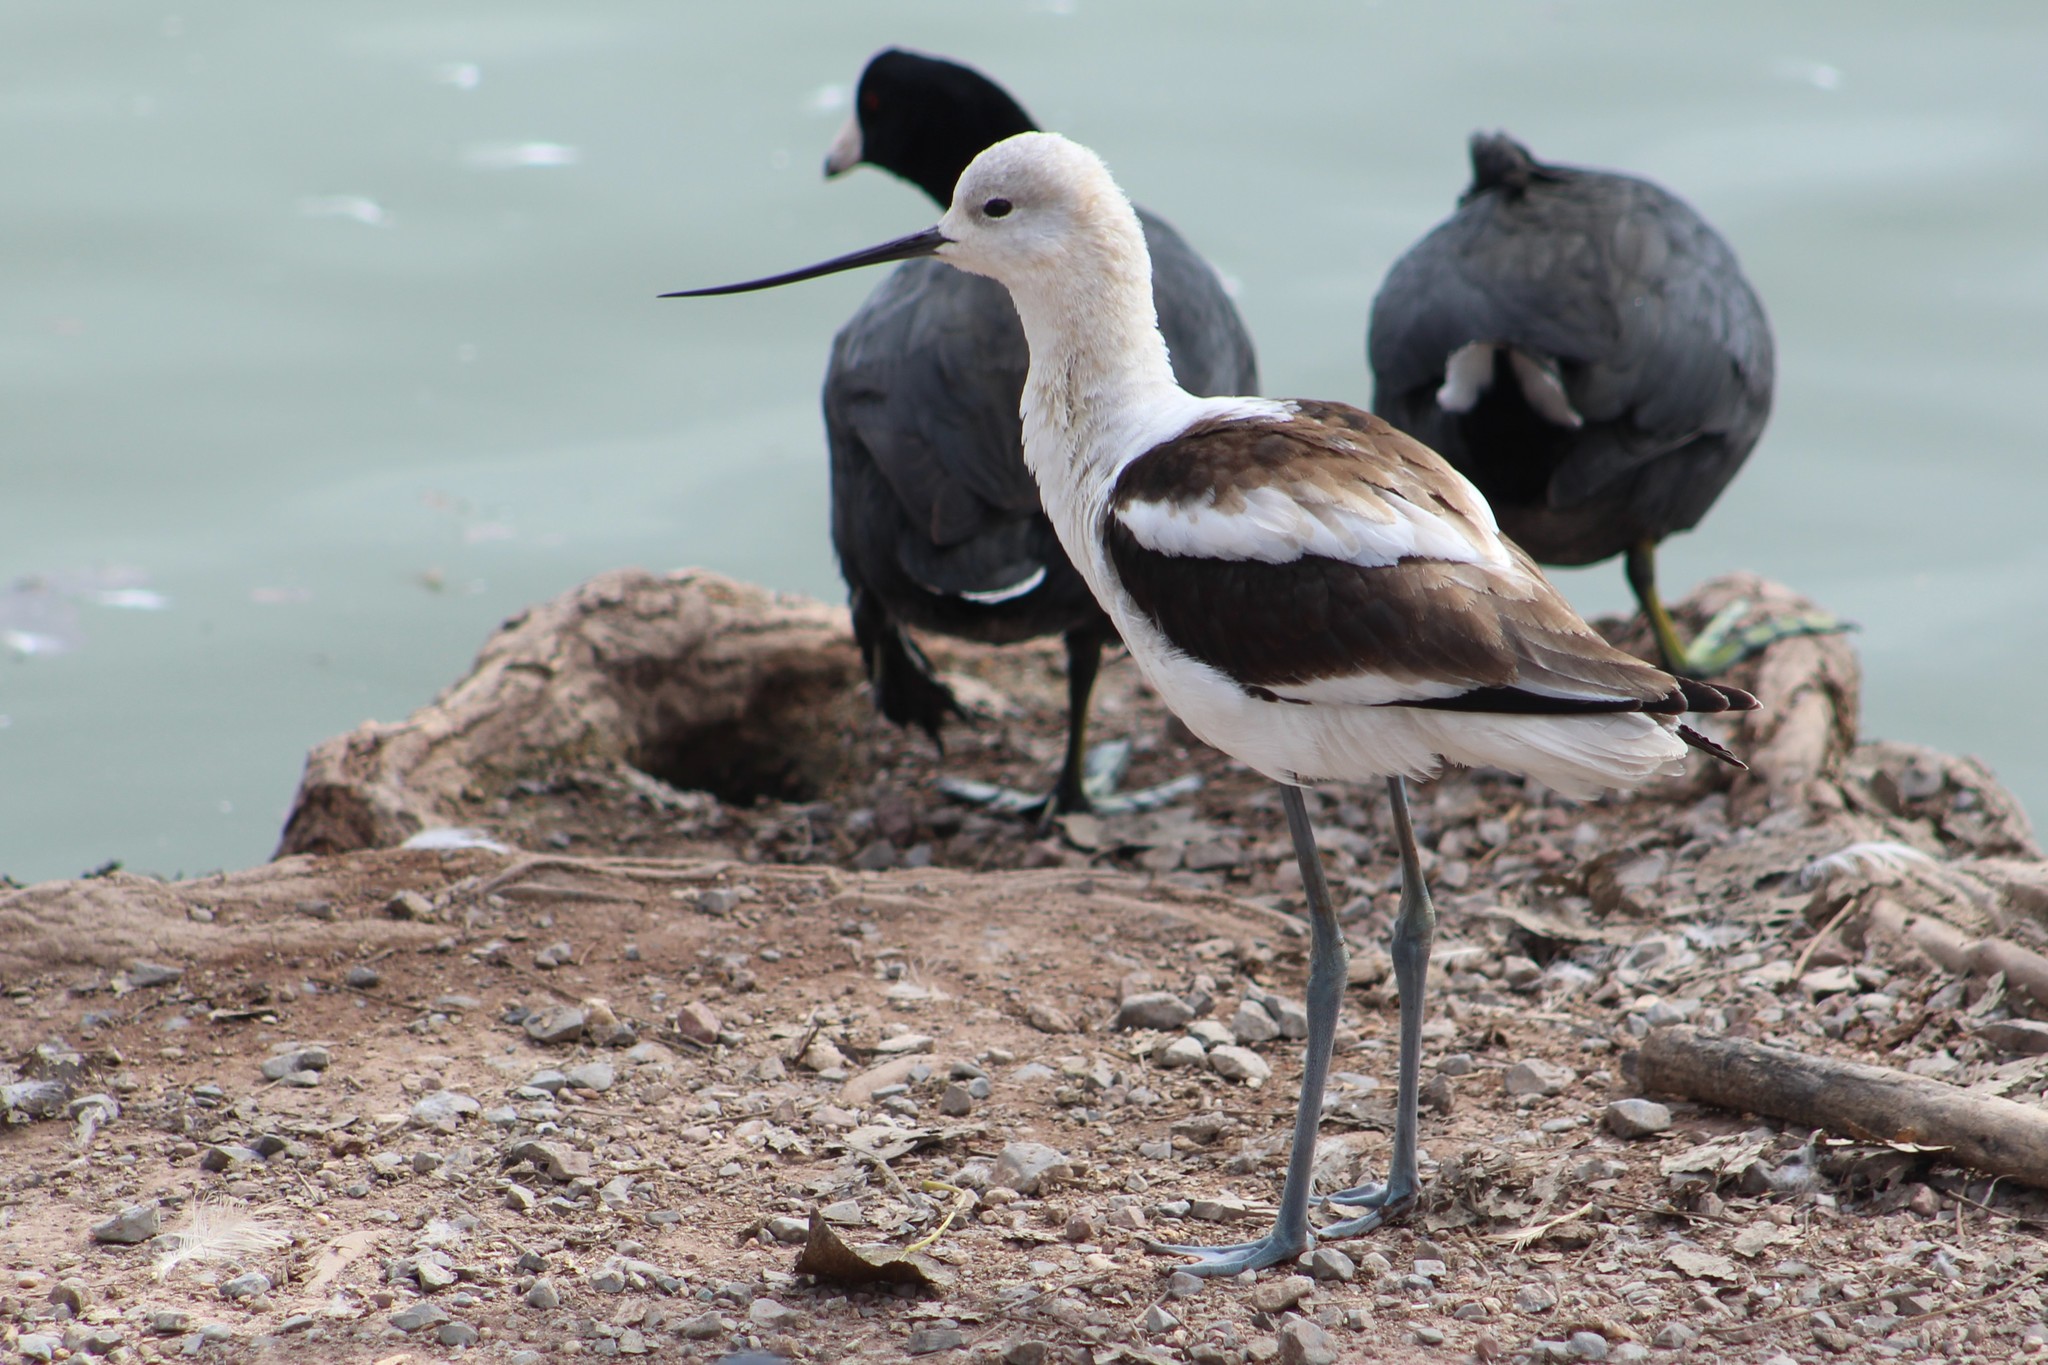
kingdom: Animalia
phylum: Chordata
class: Aves
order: Charadriiformes
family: Recurvirostridae
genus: Recurvirostra
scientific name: Recurvirostra americana
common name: American avocet
